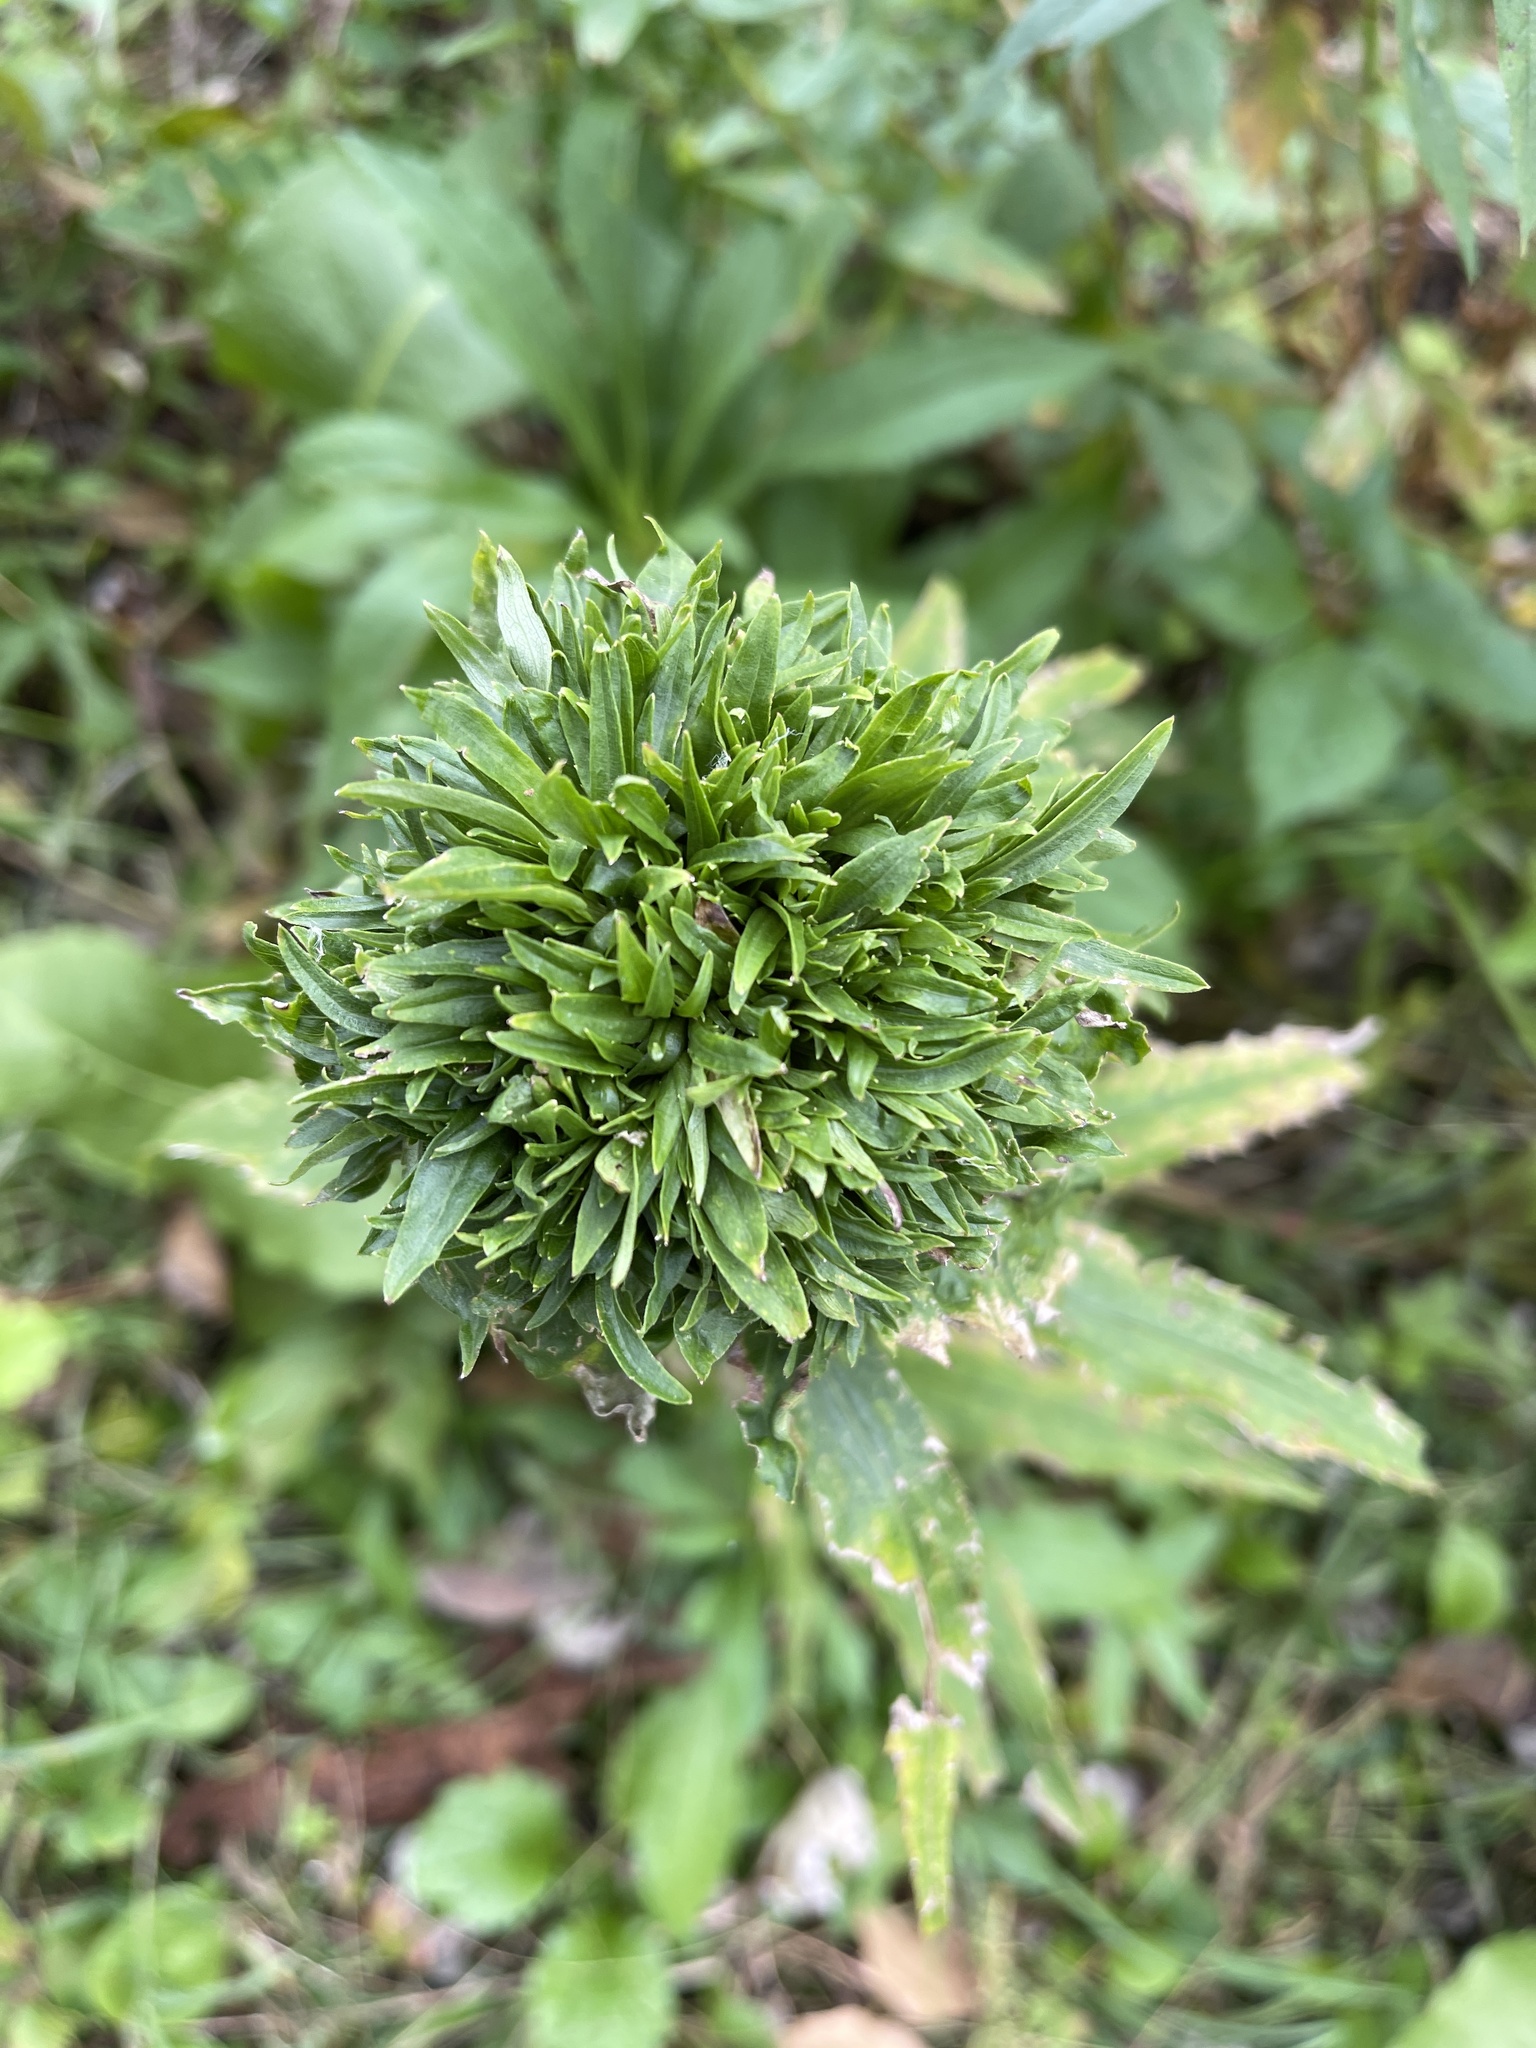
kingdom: Animalia
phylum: Arthropoda
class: Insecta
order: Diptera
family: Cecidomyiidae
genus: Rhopalomyia
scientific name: Rhopalomyia capitata
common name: Giant goldenrod bunch gall midge
